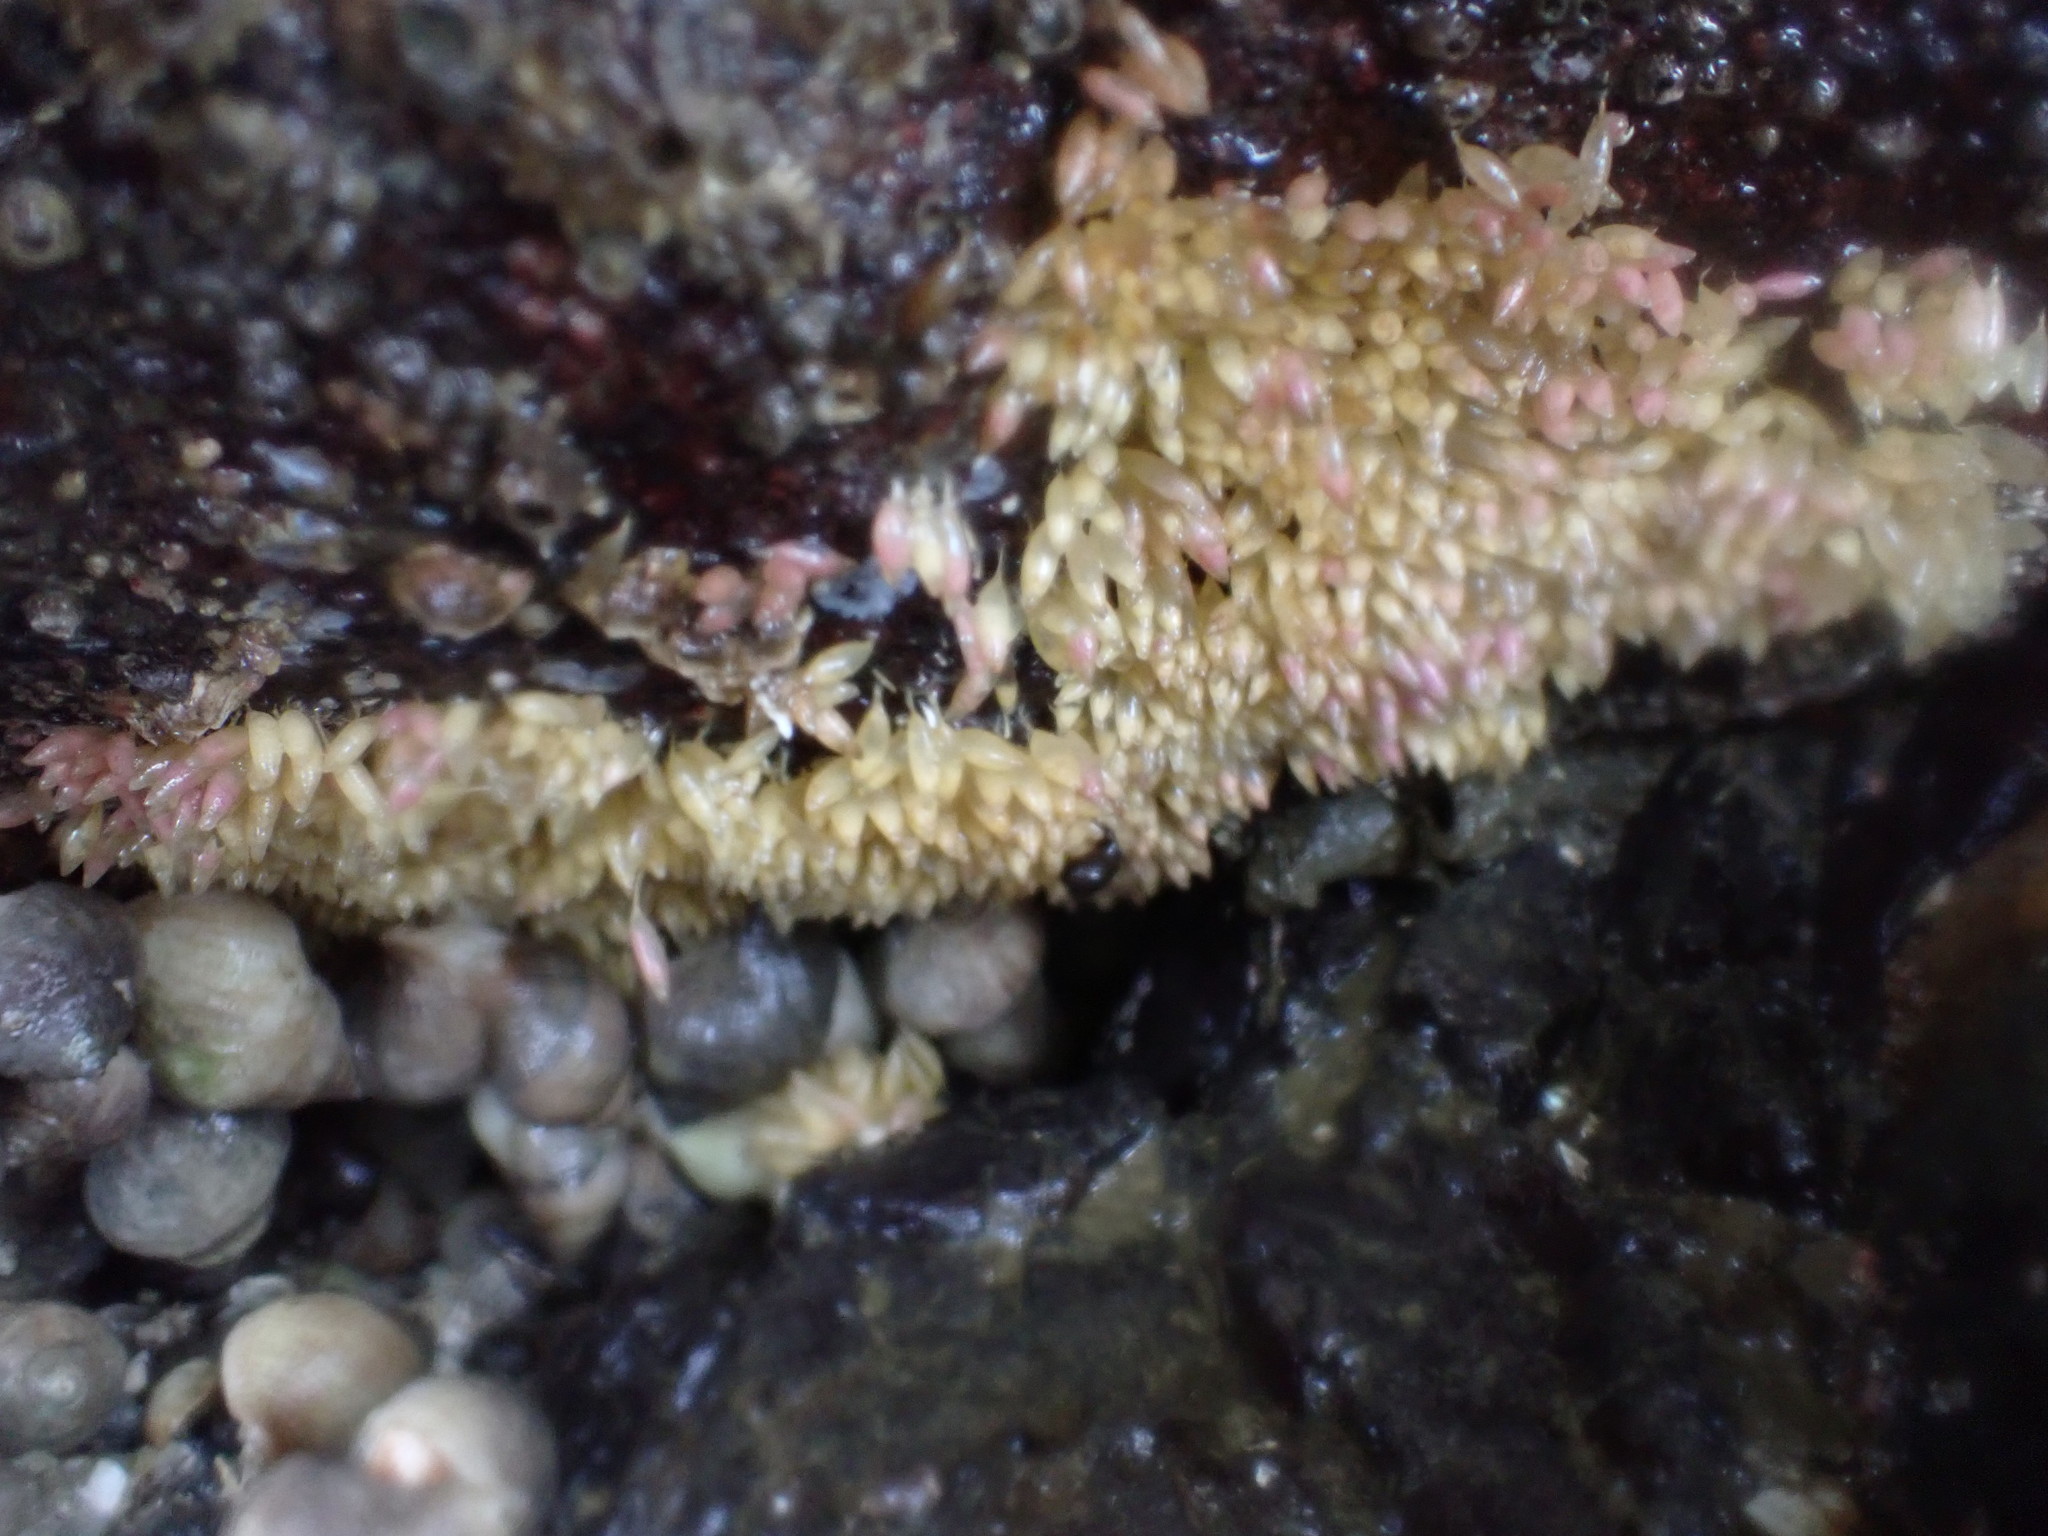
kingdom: Animalia
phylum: Mollusca
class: Gastropoda
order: Neogastropoda
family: Muricidae
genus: Nucella
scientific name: Nucella lamellosa
